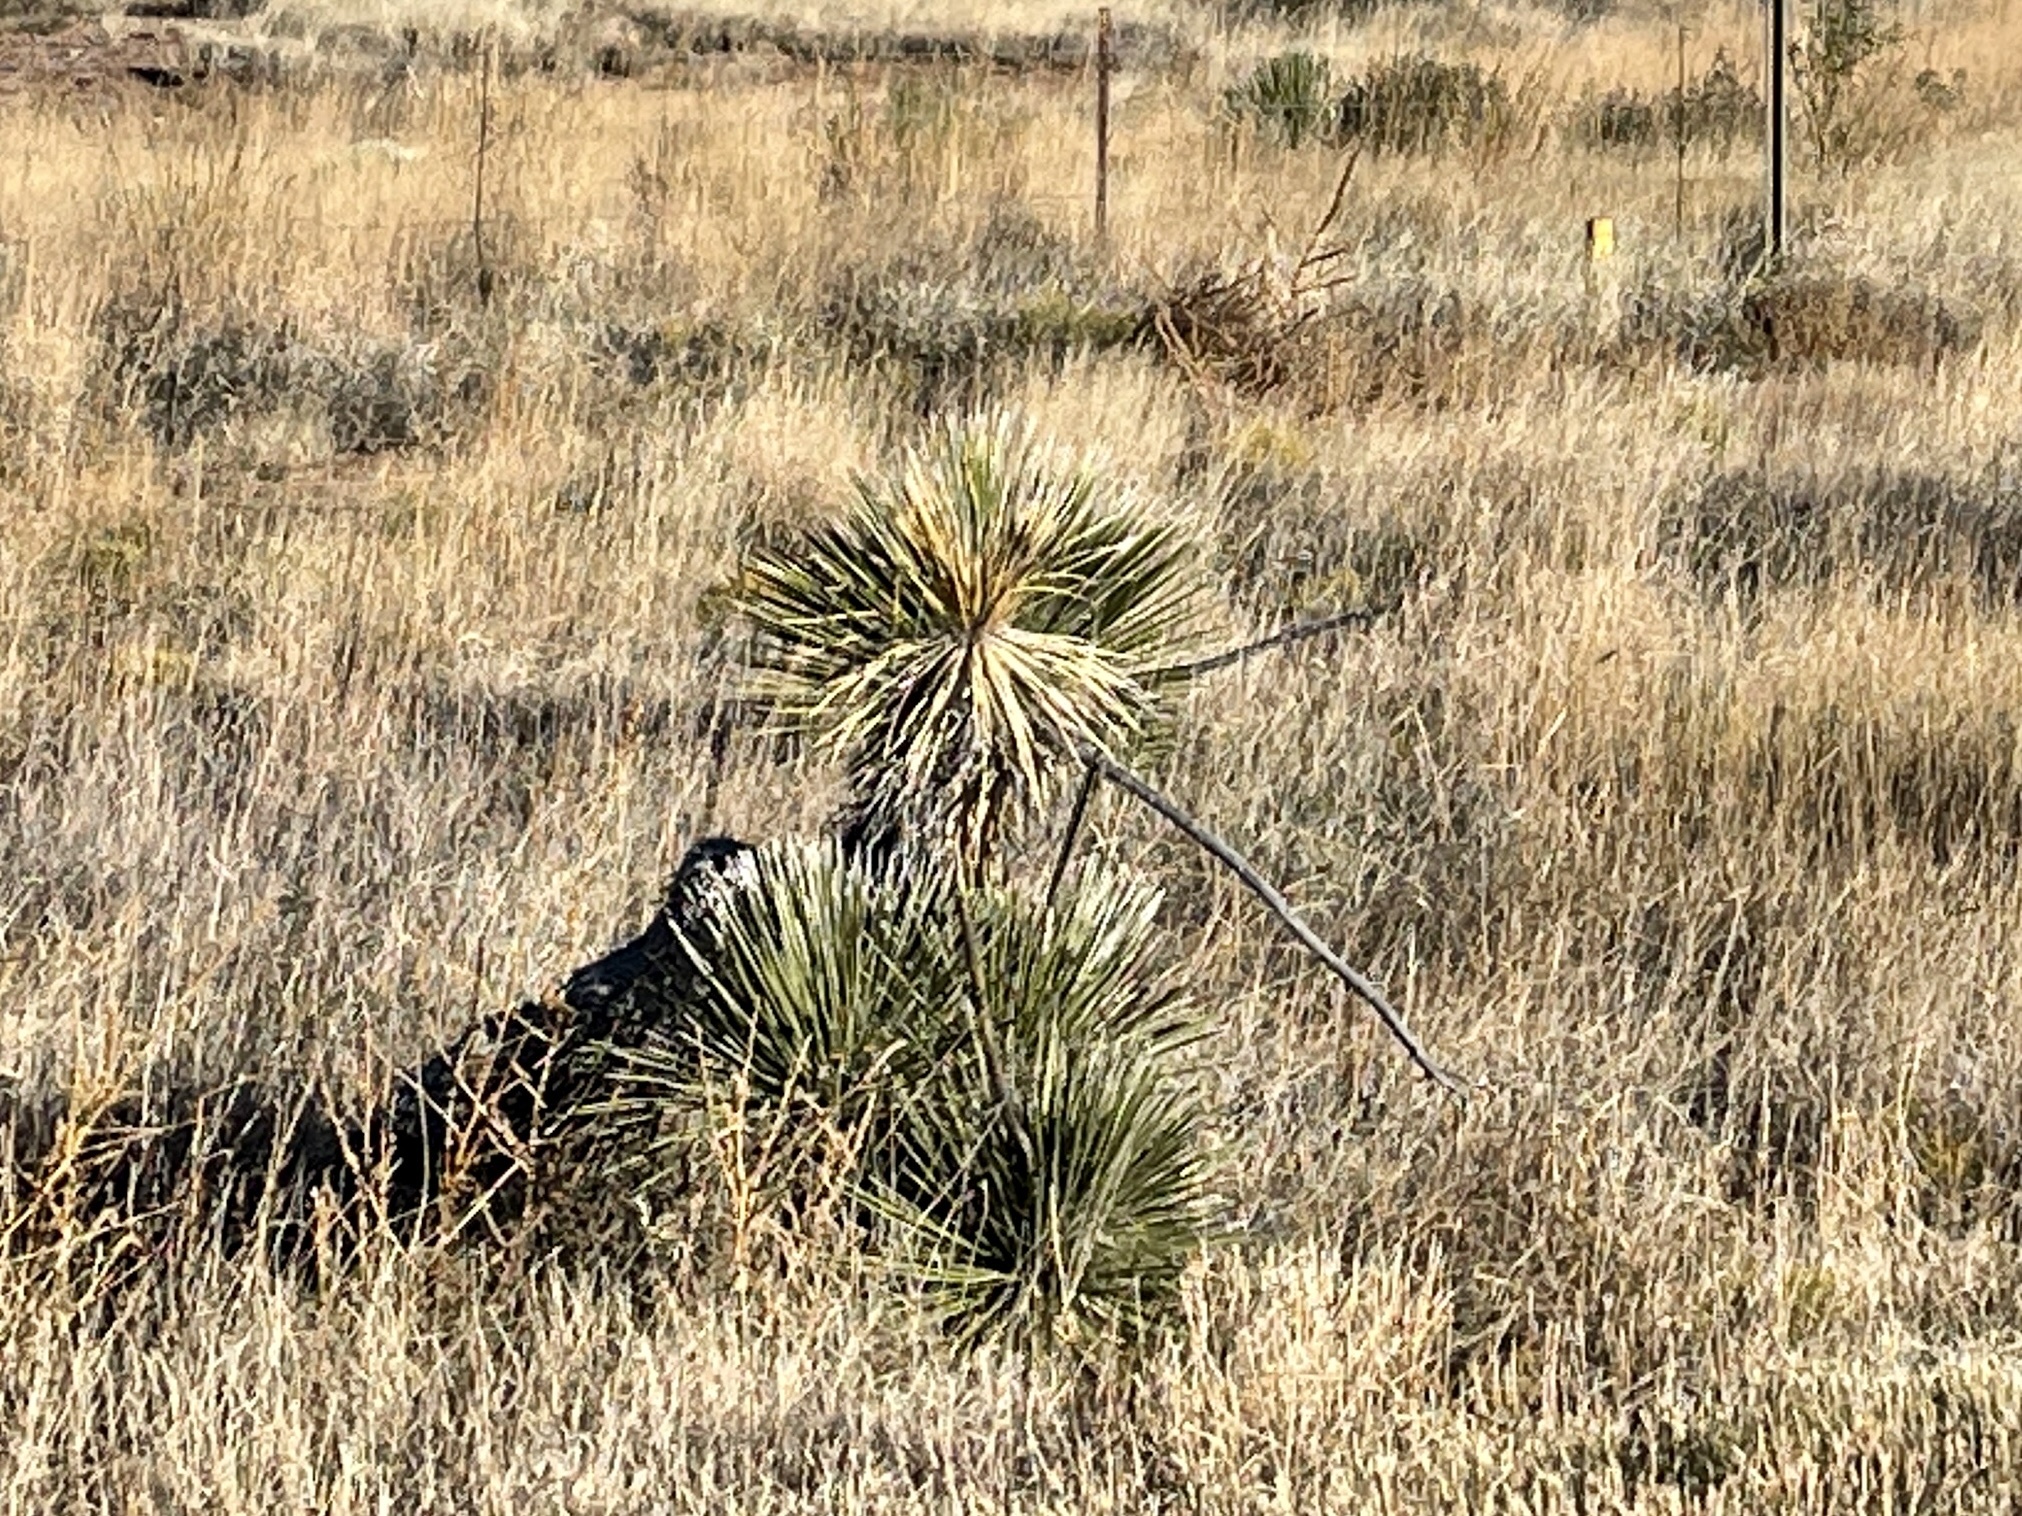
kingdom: Plantae
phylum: Tracheophyta
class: Liliopsida
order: Asparagales
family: Asparagaceae
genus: Yucca
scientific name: Yucca elata
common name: Palmella
